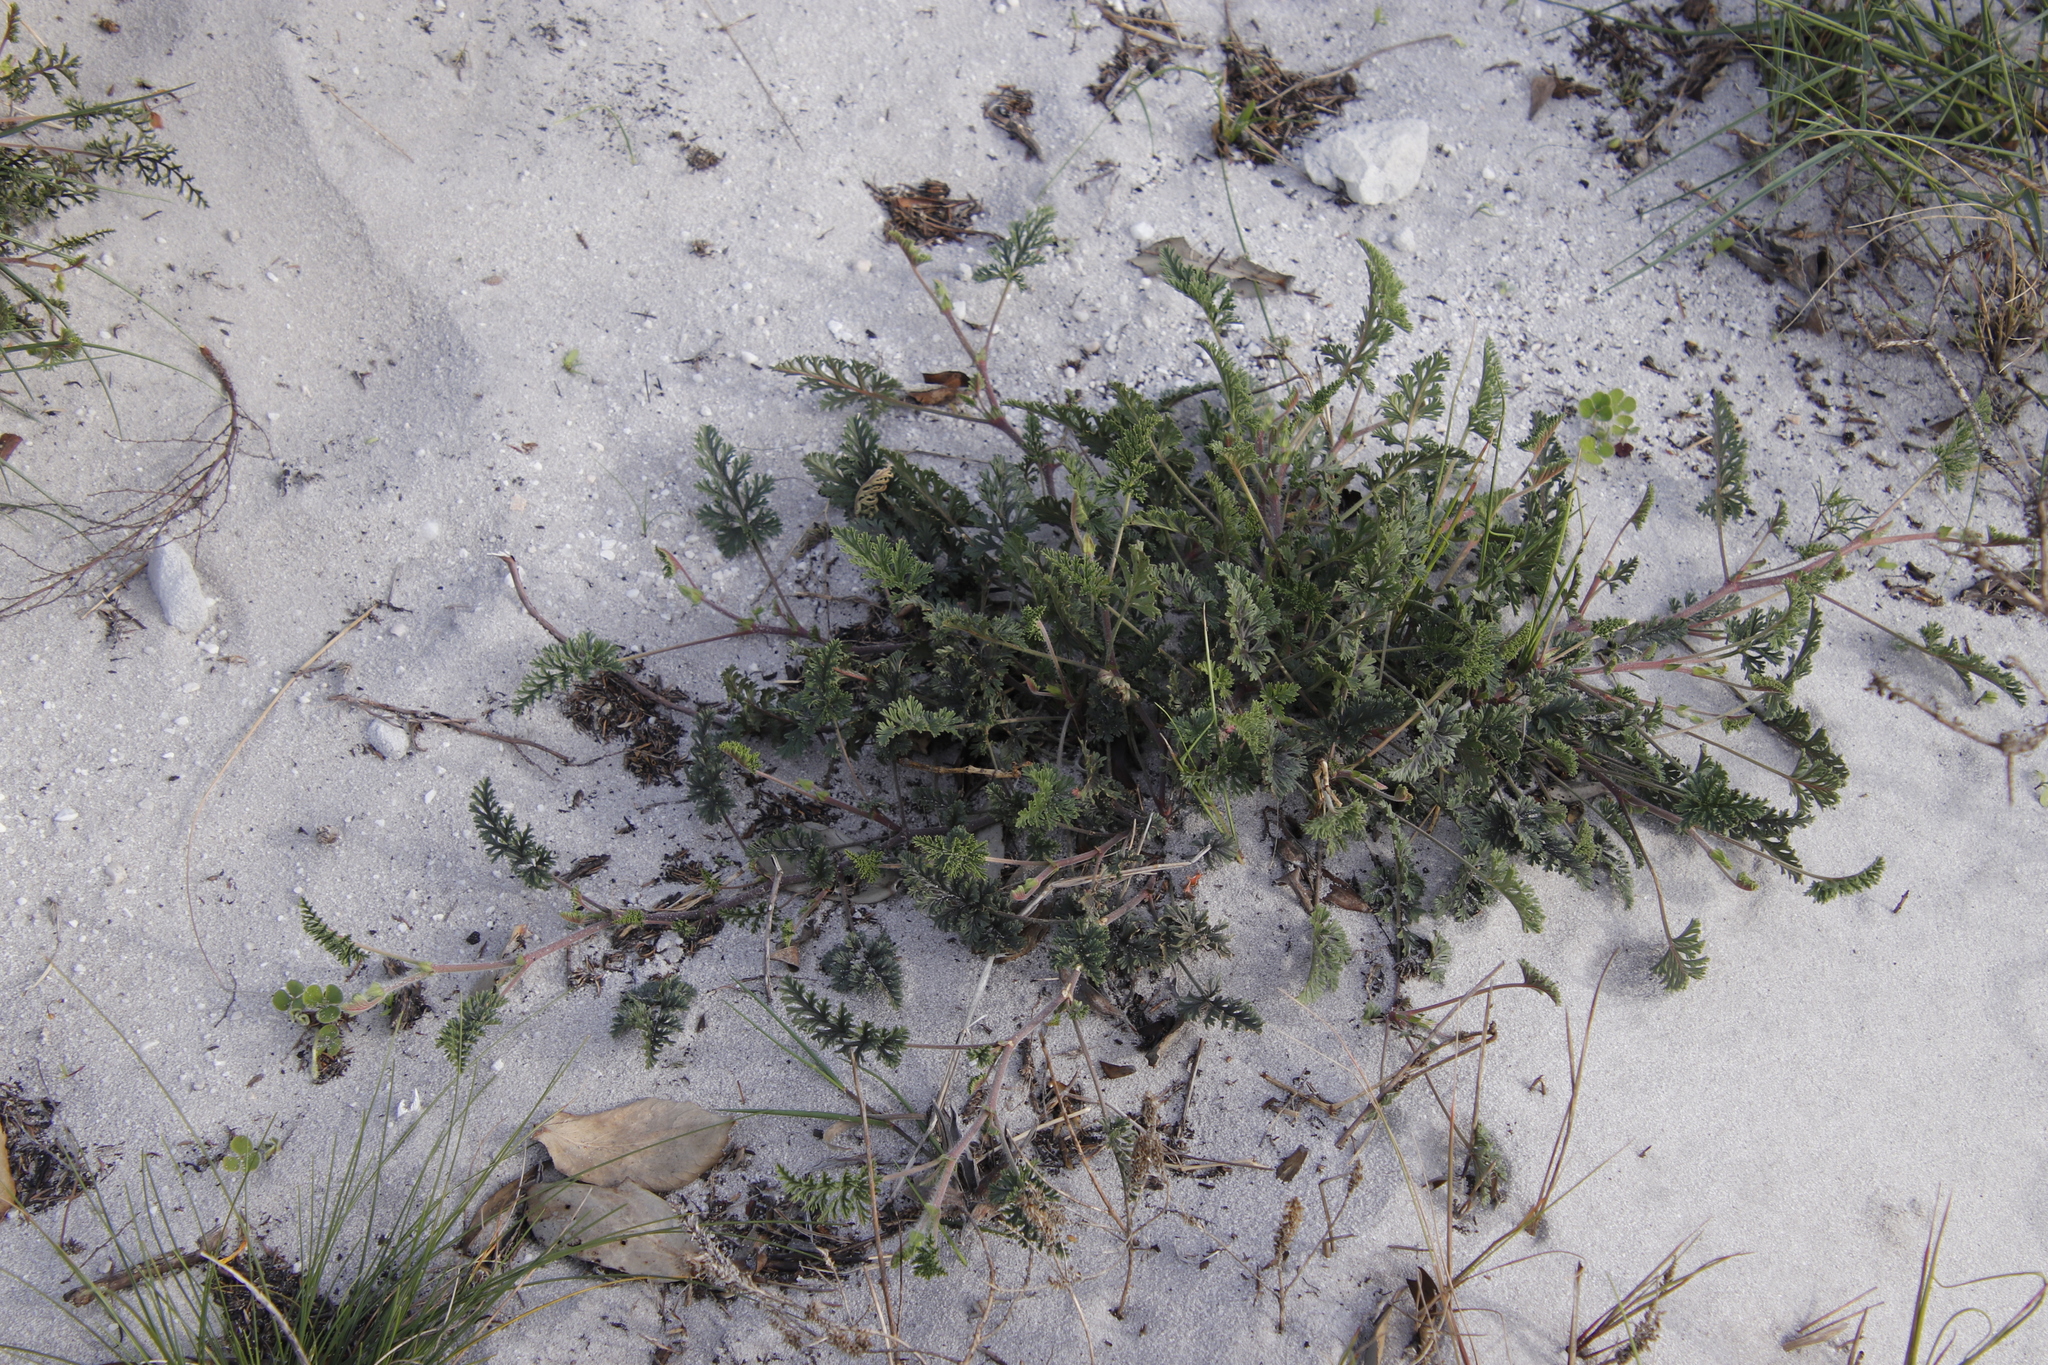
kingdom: Plantae
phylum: Tracheophyta
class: Magnoliopsida
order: Geraniales
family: Geraniaceae
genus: Pelargonium
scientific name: Pelargonium suburbanum
